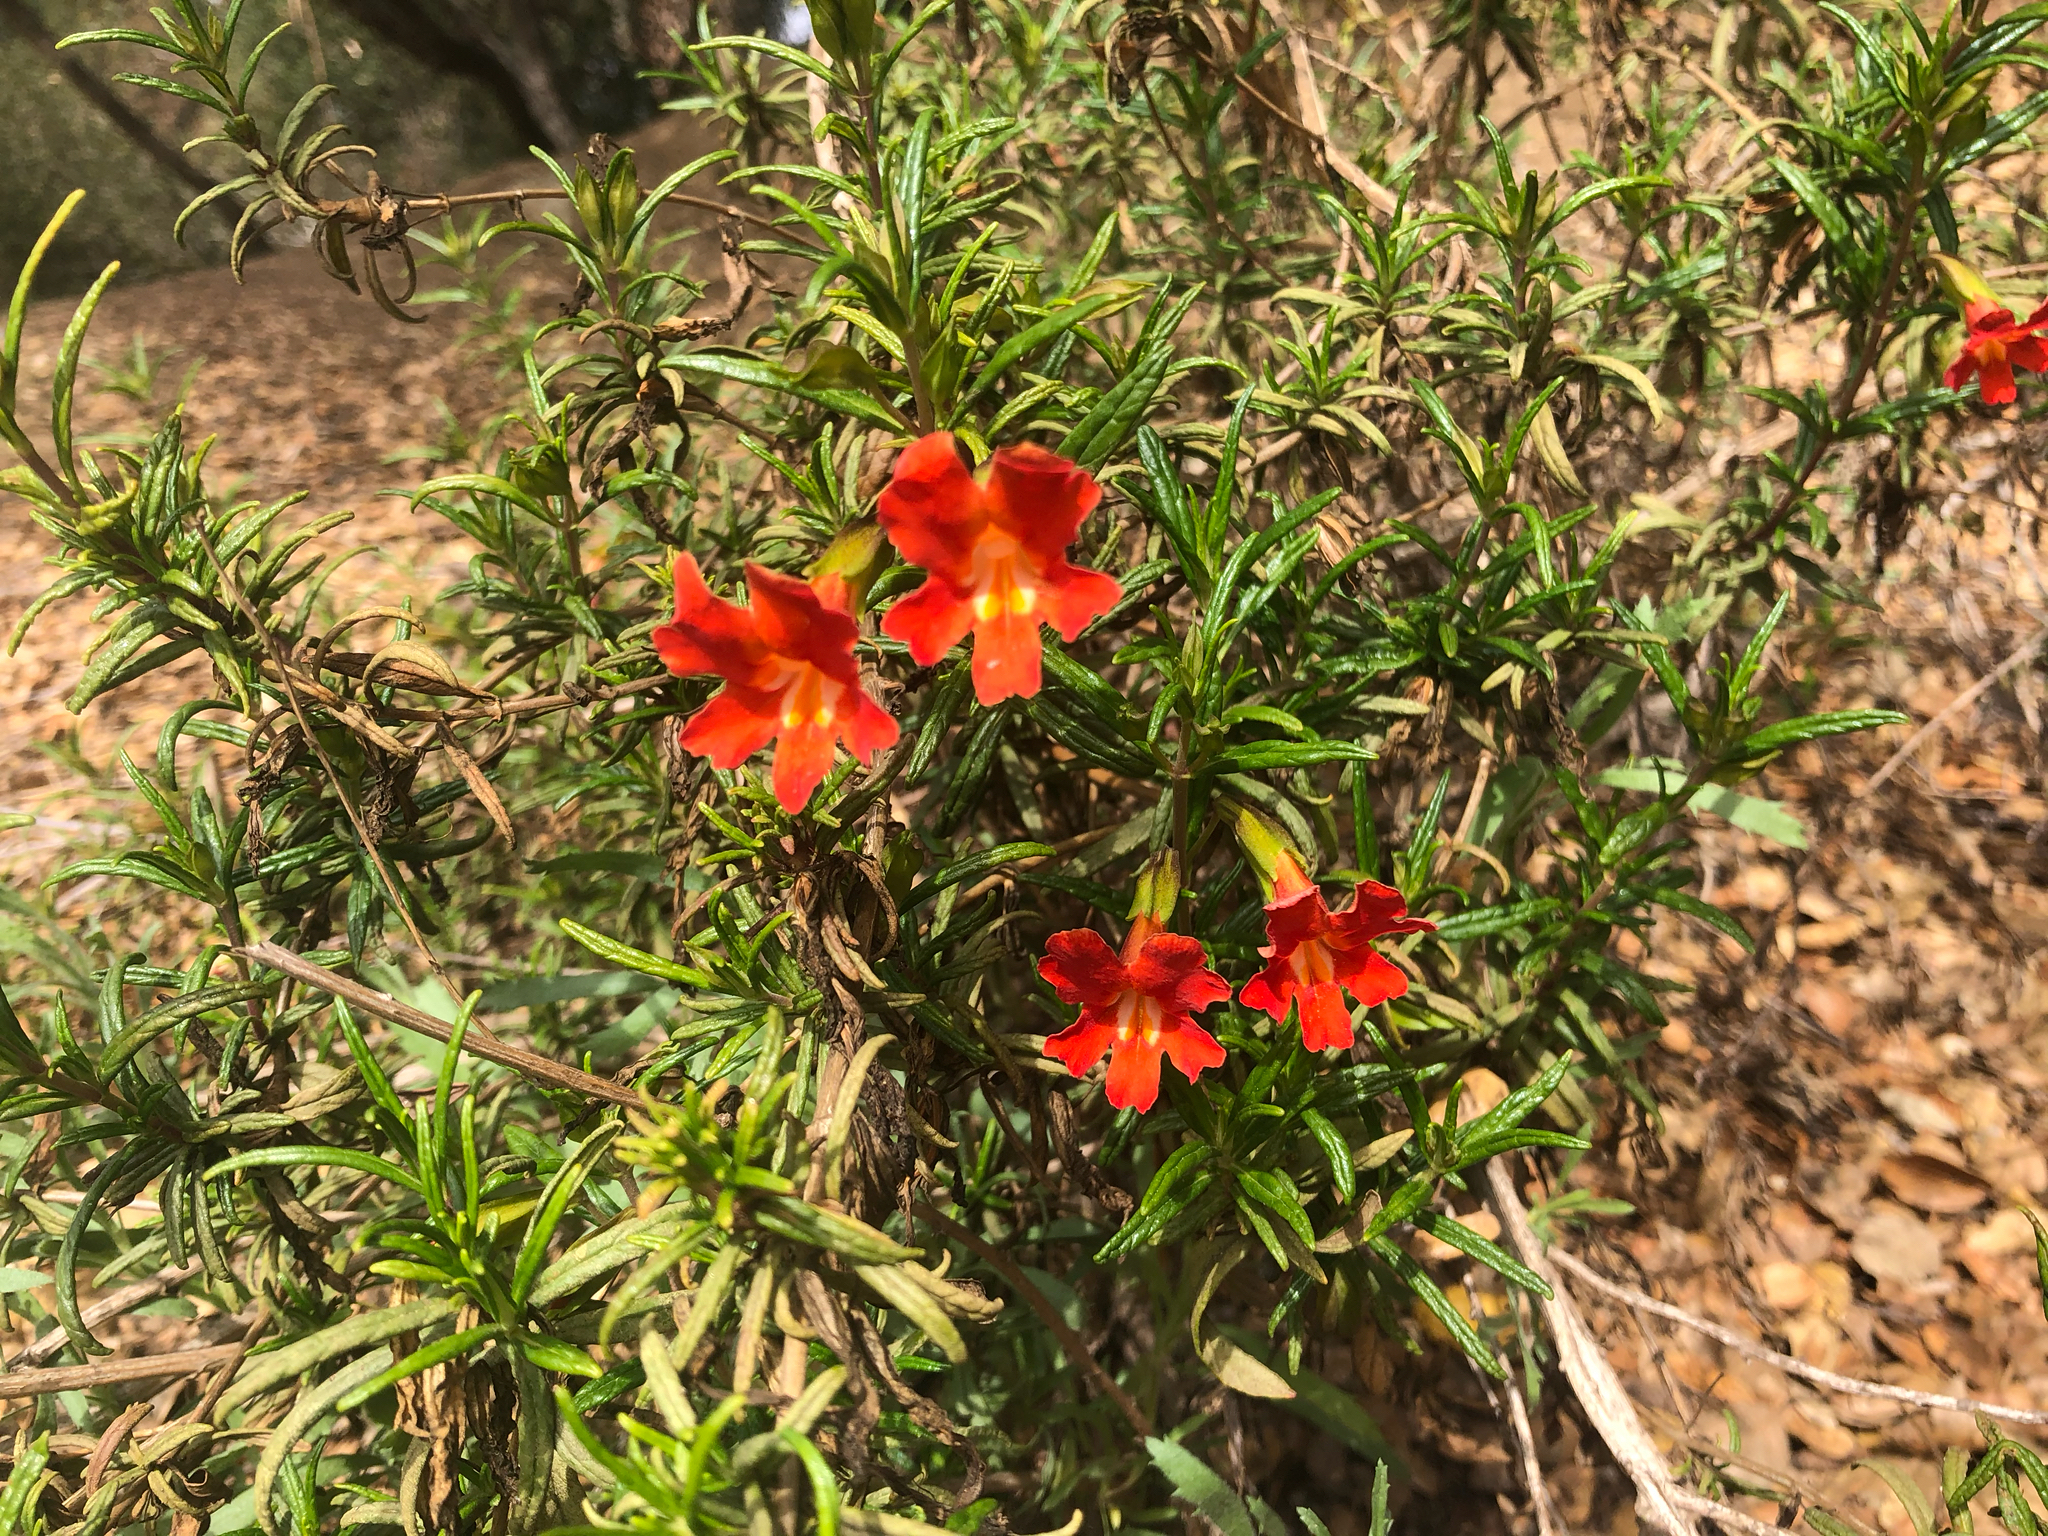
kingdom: Plantae
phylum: Tracheophyta
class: Magnoliopsida
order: Lamiales
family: Phrymaceae
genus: Diplacus
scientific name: Diplacus puniceus
